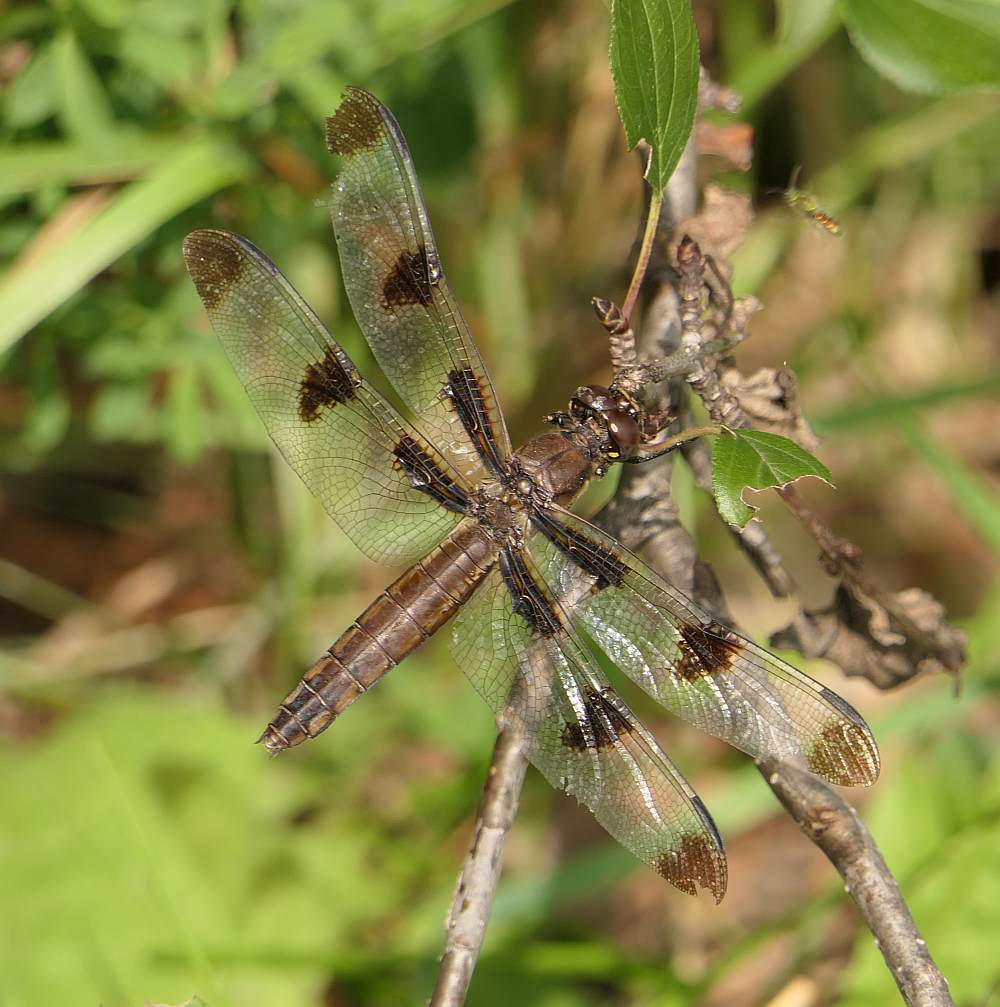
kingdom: Animalia
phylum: Arthropoda
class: Insecta
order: Odonata
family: Libellulidae
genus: Libellula
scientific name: Libellula pulchella
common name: Twelve-spotted skimmer
